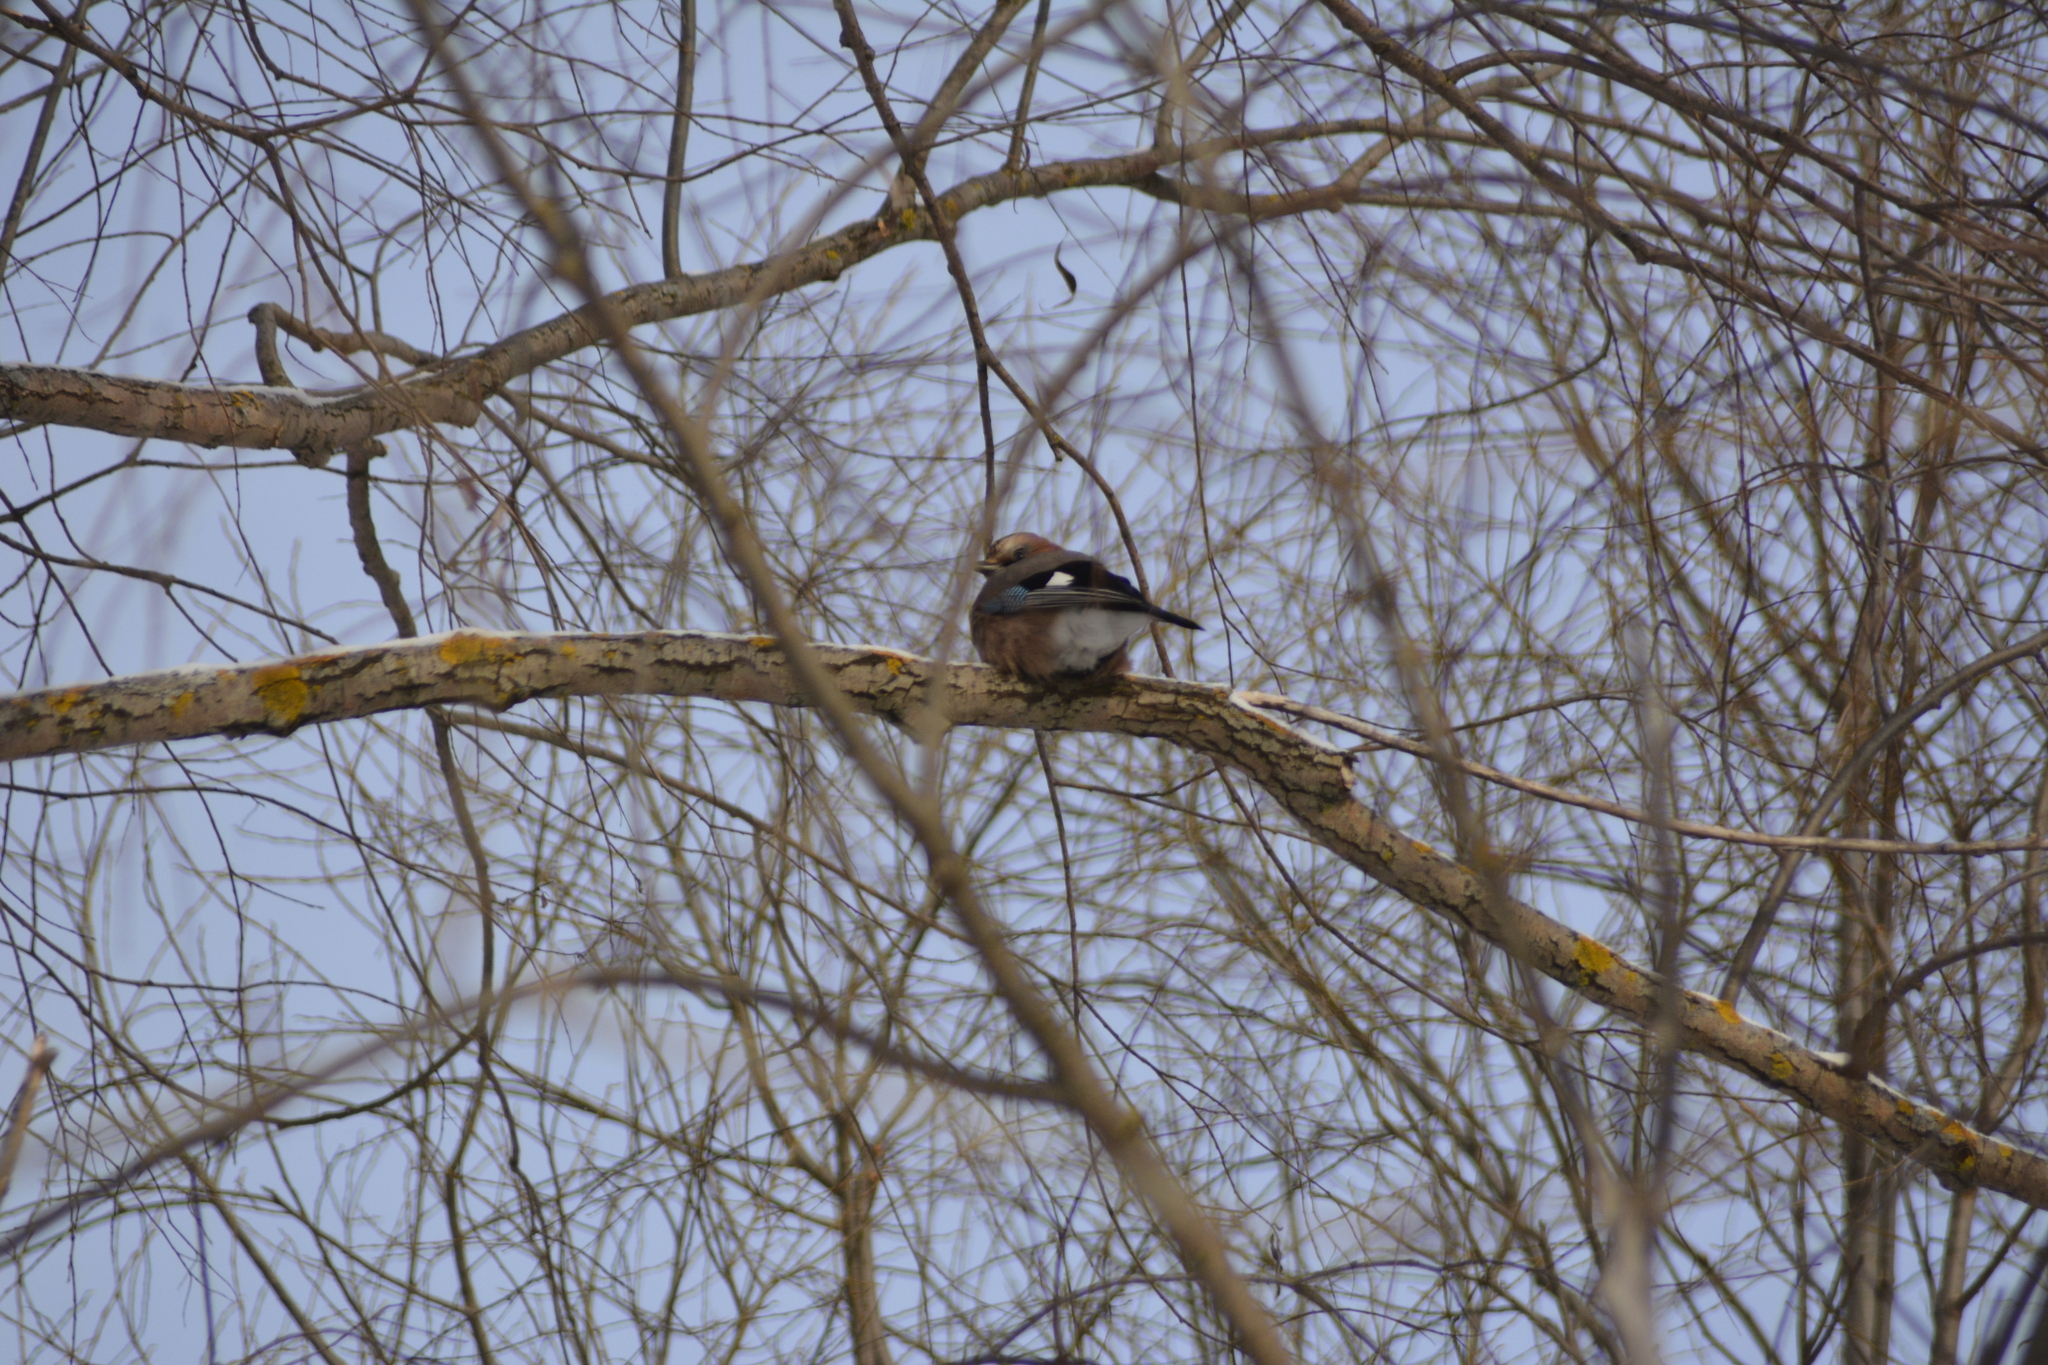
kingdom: Animalia
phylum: Chordata
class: Aves
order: Passeriformes
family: Corvidae
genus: Garrulus
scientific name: Garrulus glandarius
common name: Eurasian jay
